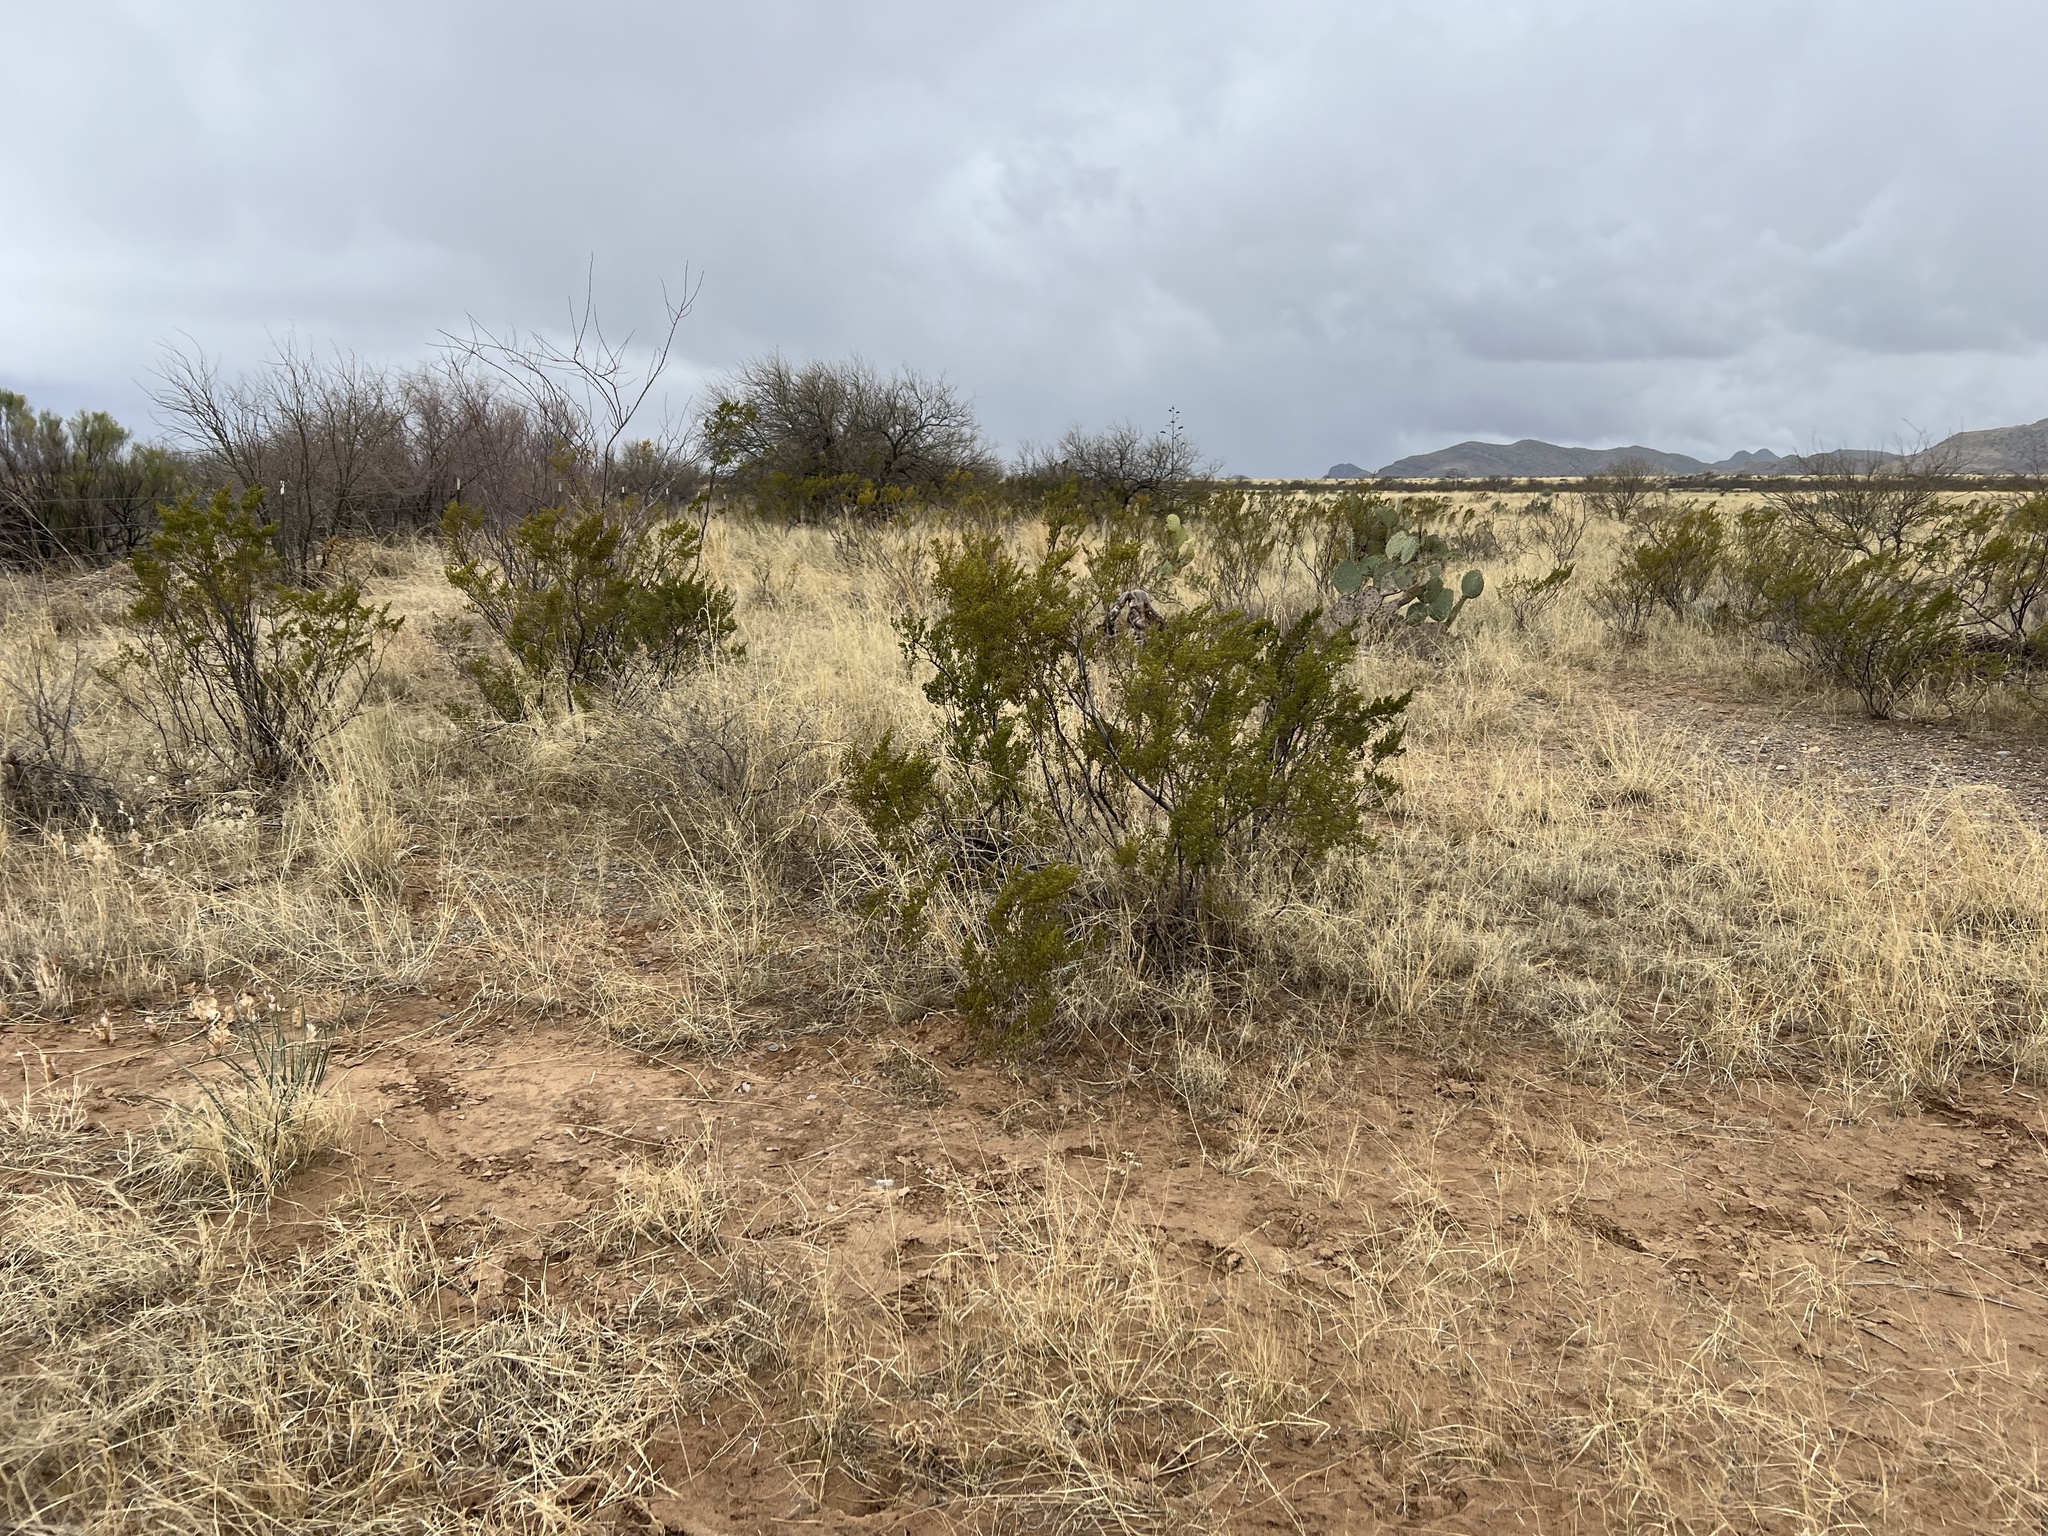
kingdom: Plantae
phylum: Tracheophyta
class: Magnoliopsida
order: Zygophyllales
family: Zygophyllaceae
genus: Larrea
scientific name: Larrea tridentata
